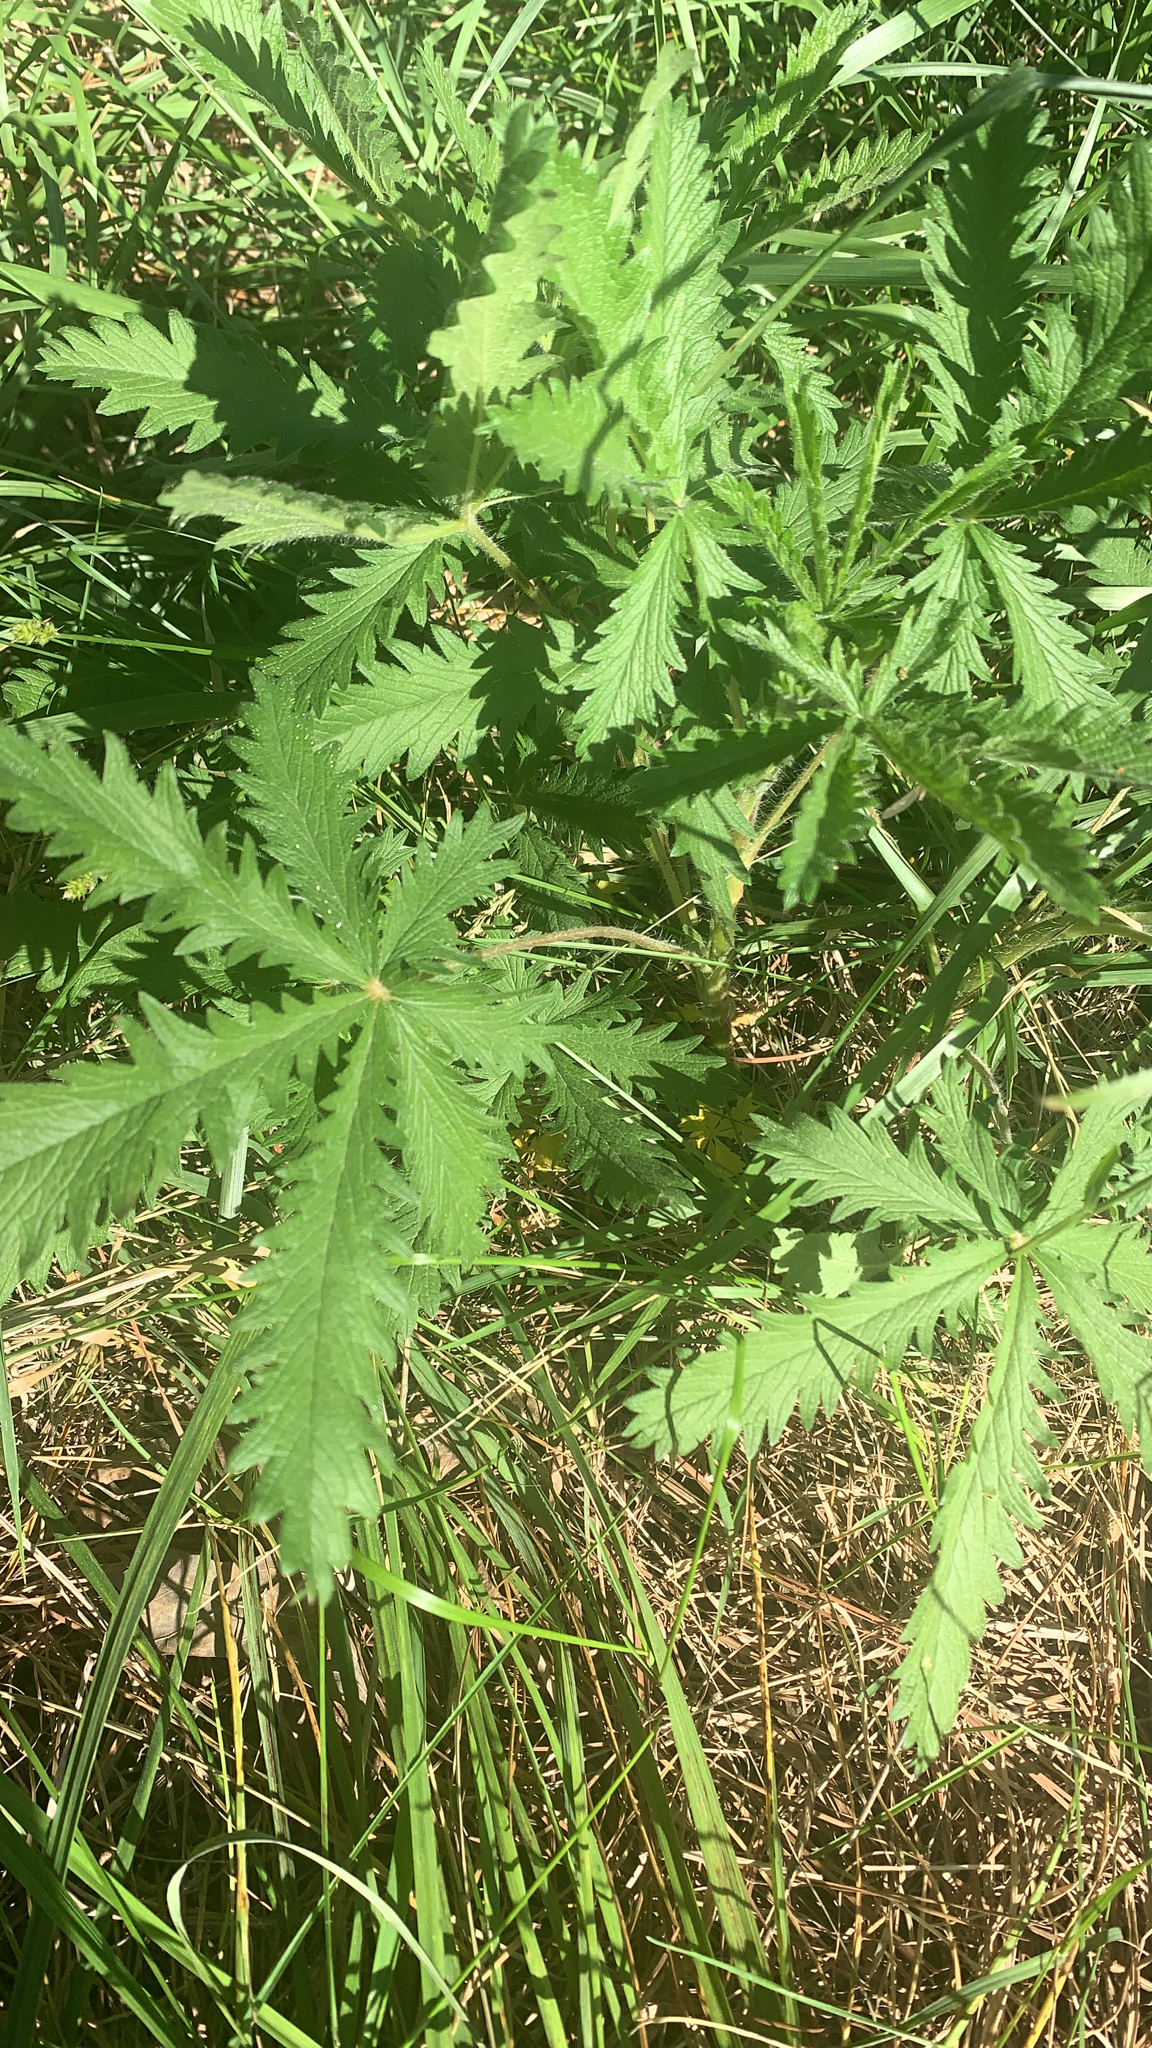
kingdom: Plantae
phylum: Tracheophyta
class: Magnoliopsida
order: Rosales
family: Rosaceae
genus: Potentilla
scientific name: Potentilla recta
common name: Sulphur cinquefoil
